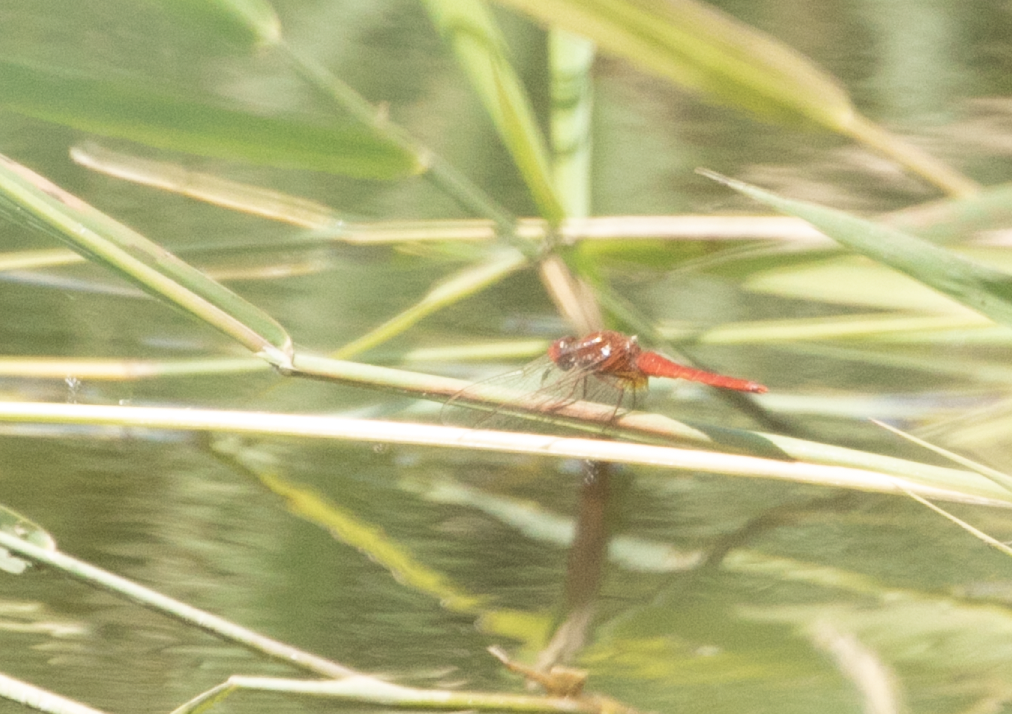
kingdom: Animalia
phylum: Arthropoda
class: Insecta
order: Odonata
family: Libellulidae
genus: Crocothemis
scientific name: Crocothemis erythraea
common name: Scarlet dragonfly
